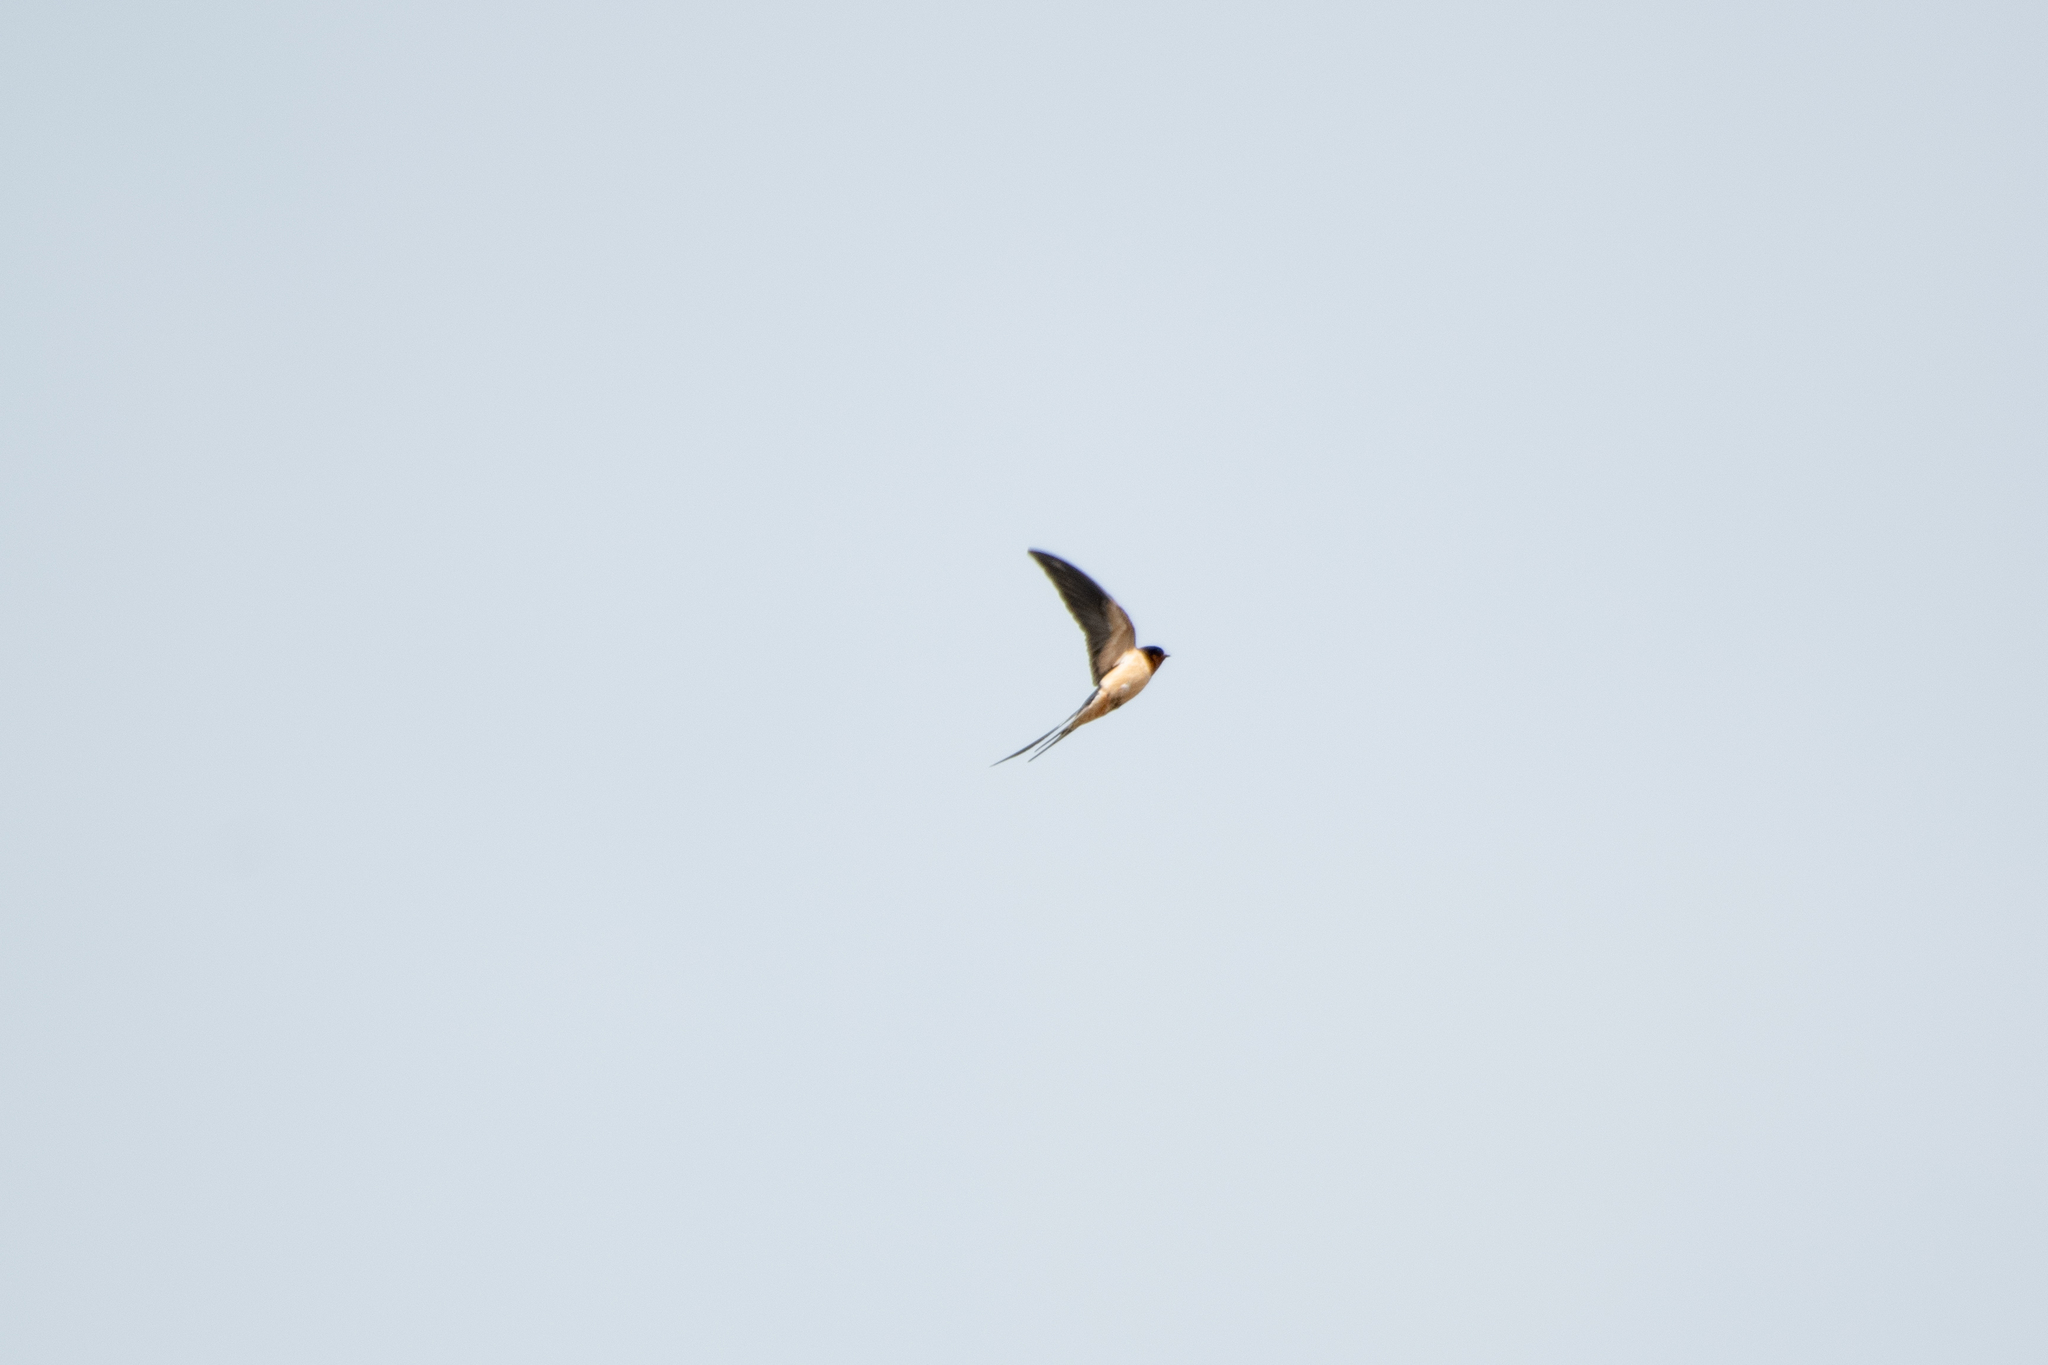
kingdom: Animalia
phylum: Chordata
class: Aves
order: Passeriformes
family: Hirundinidae
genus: Hirundo
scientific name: Hirundo rustica
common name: Barn swallow
